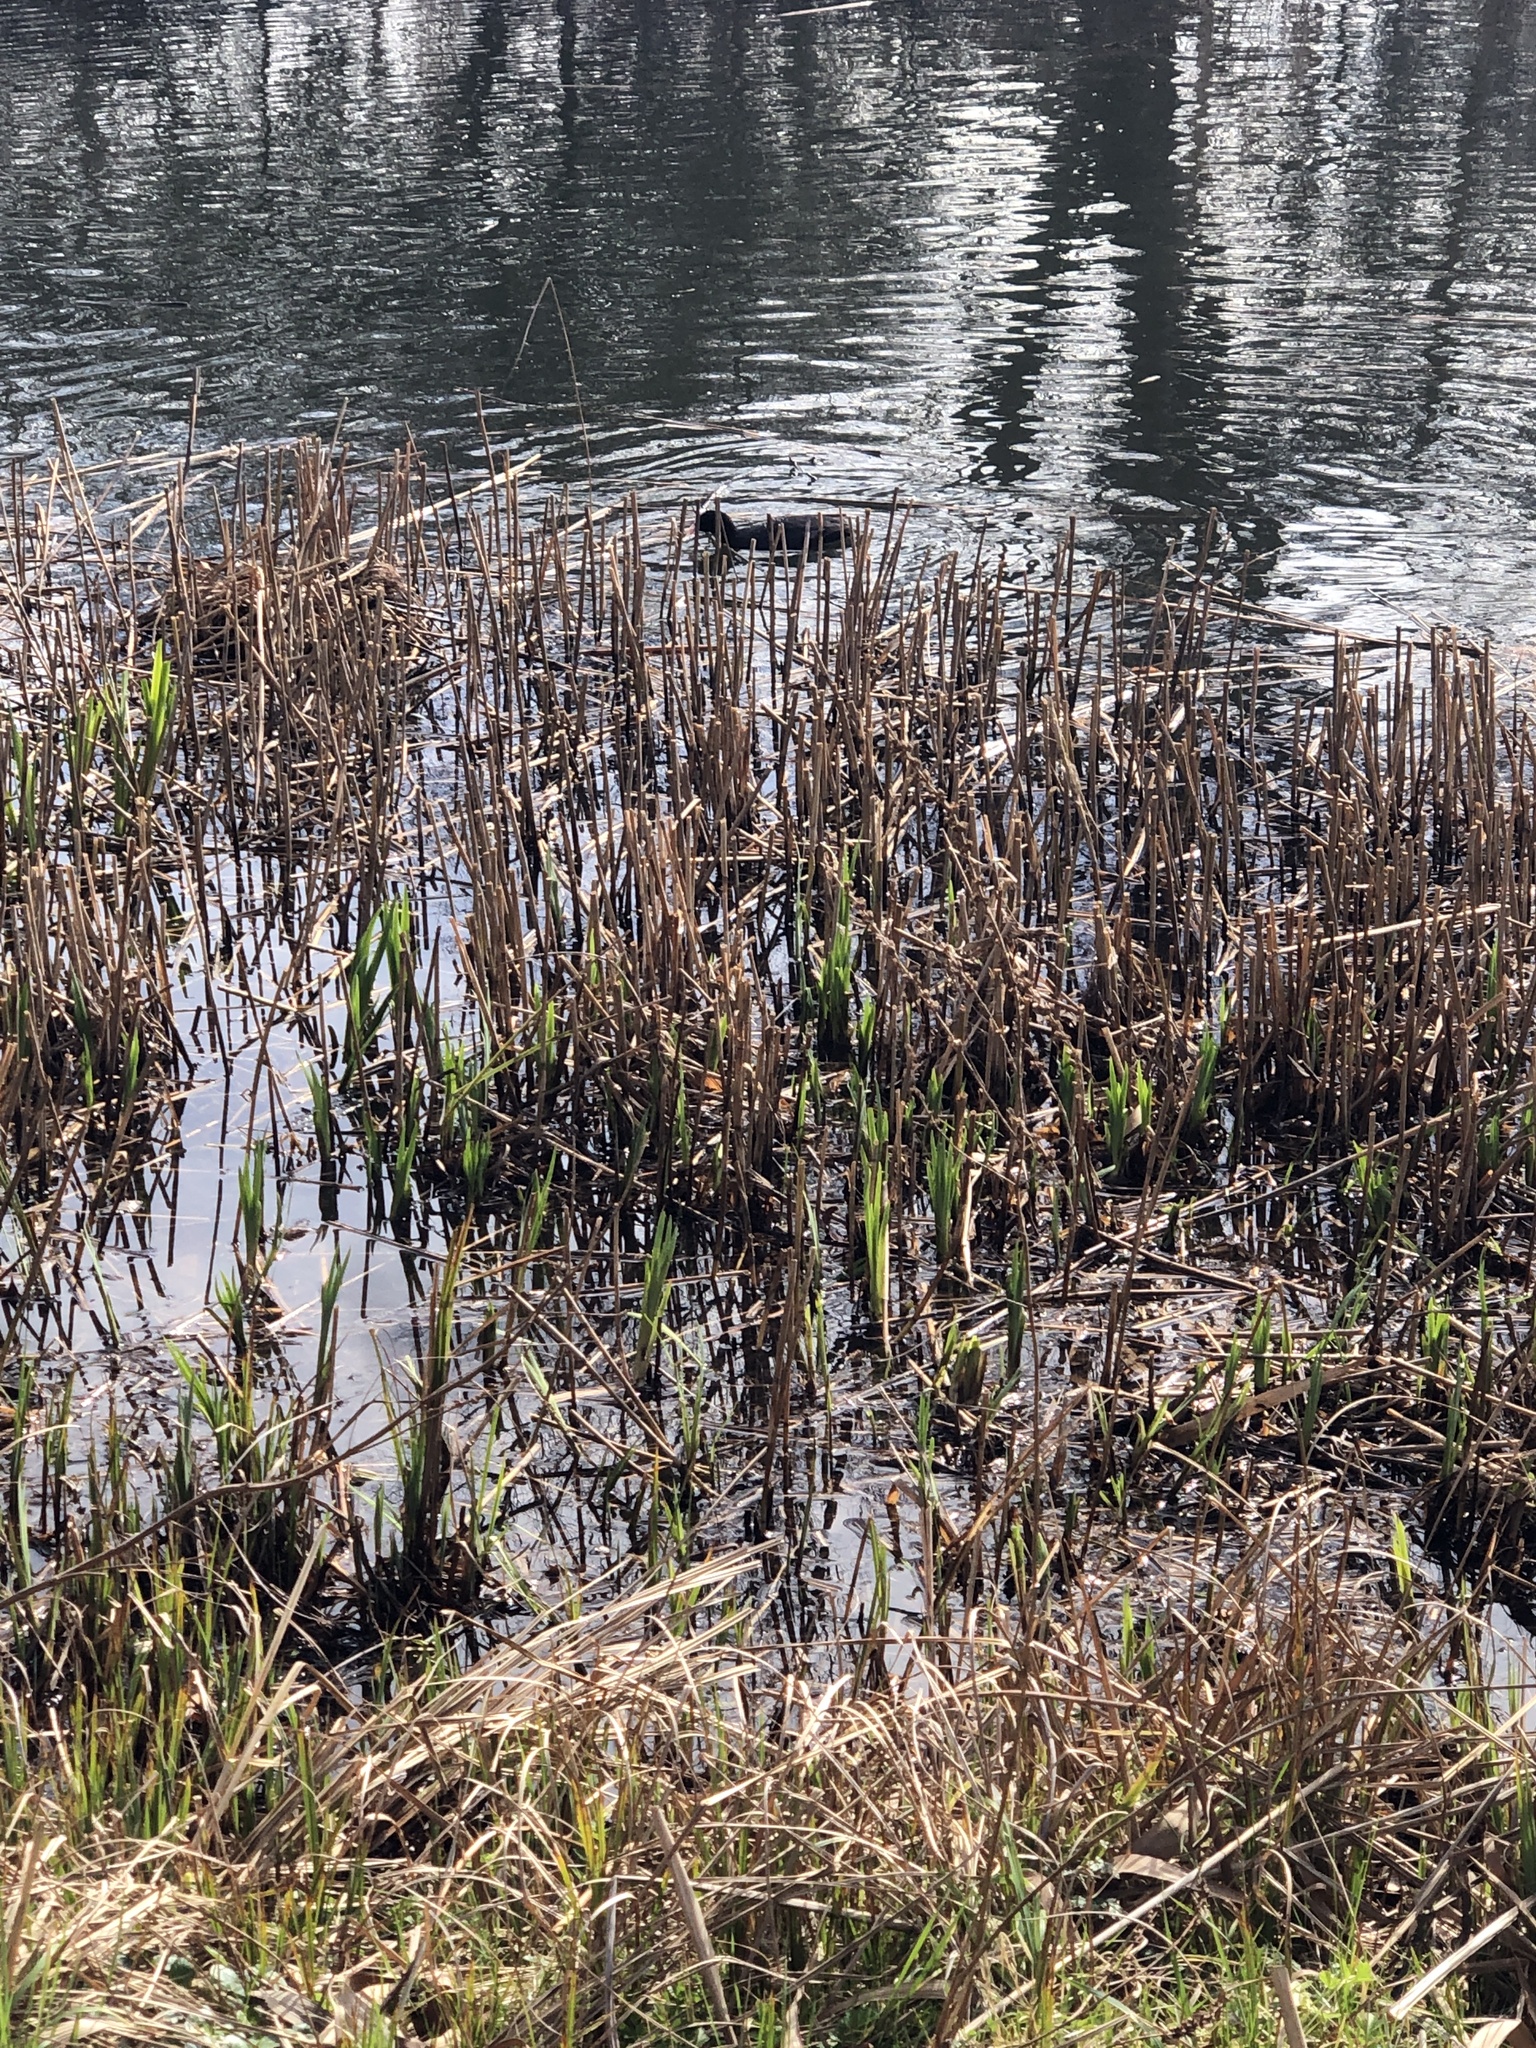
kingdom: Animalia
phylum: Chordata
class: Aves
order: Gruiformes
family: Rallidae
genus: Fulica
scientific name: Fulica atra
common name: Eurasian coot
